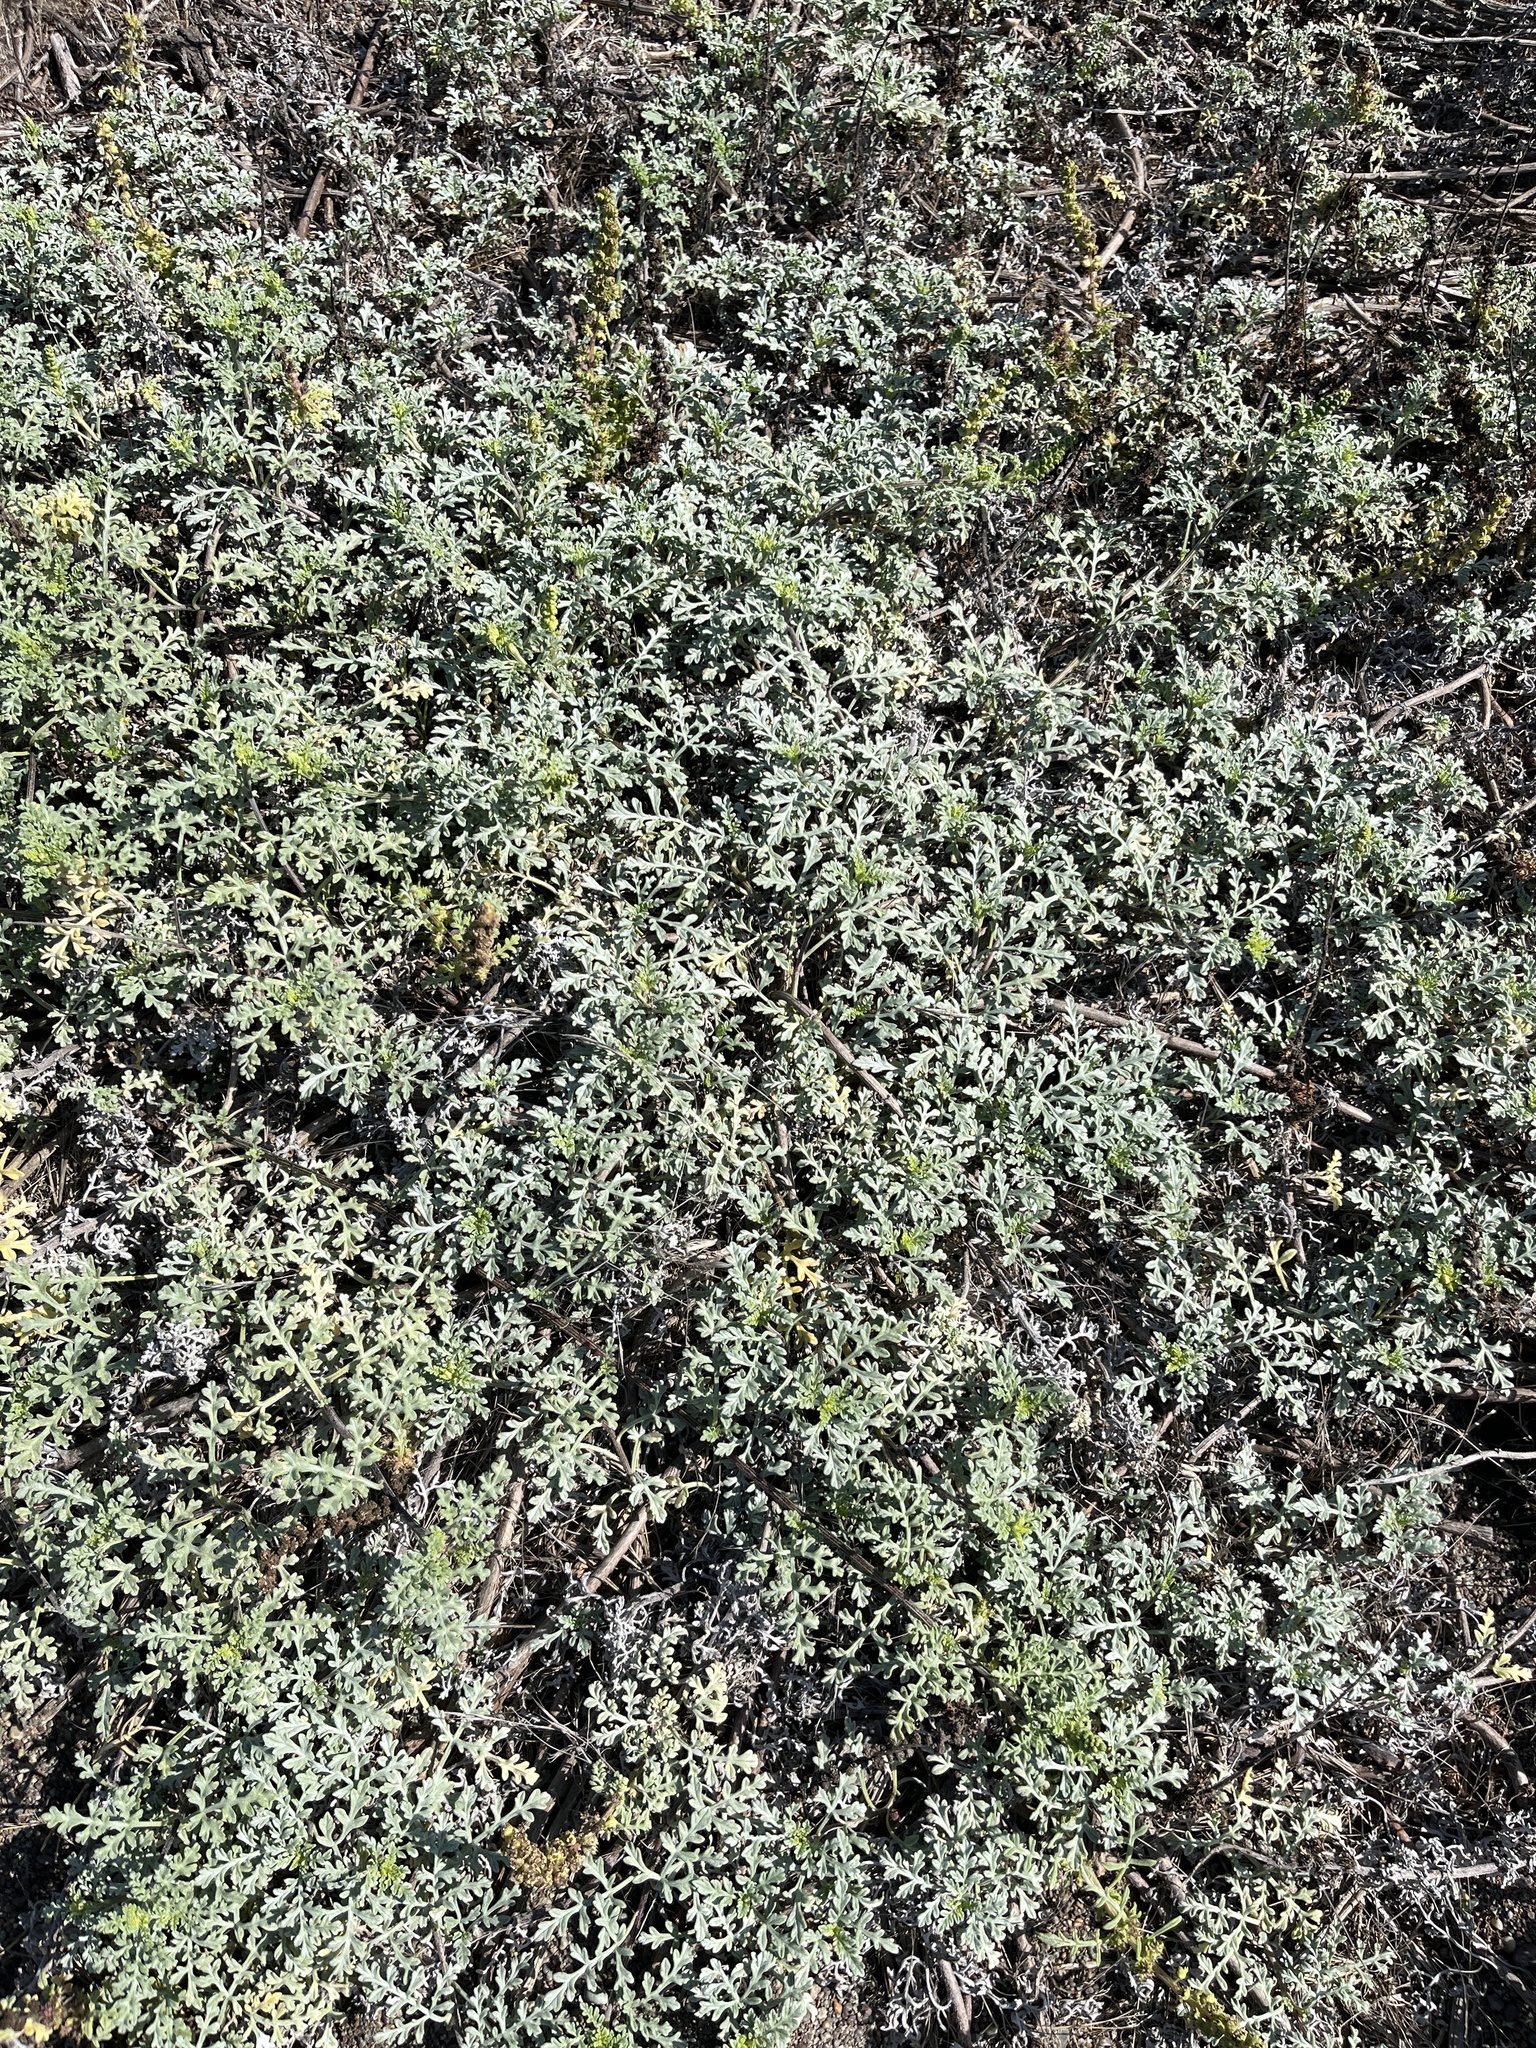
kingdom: Plantae
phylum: Tracheophyta
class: Magnoliopsida
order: Asterales
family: Asteraceae
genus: Ambrosia
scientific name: Ambrosia chamissonis
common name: Beachbur
